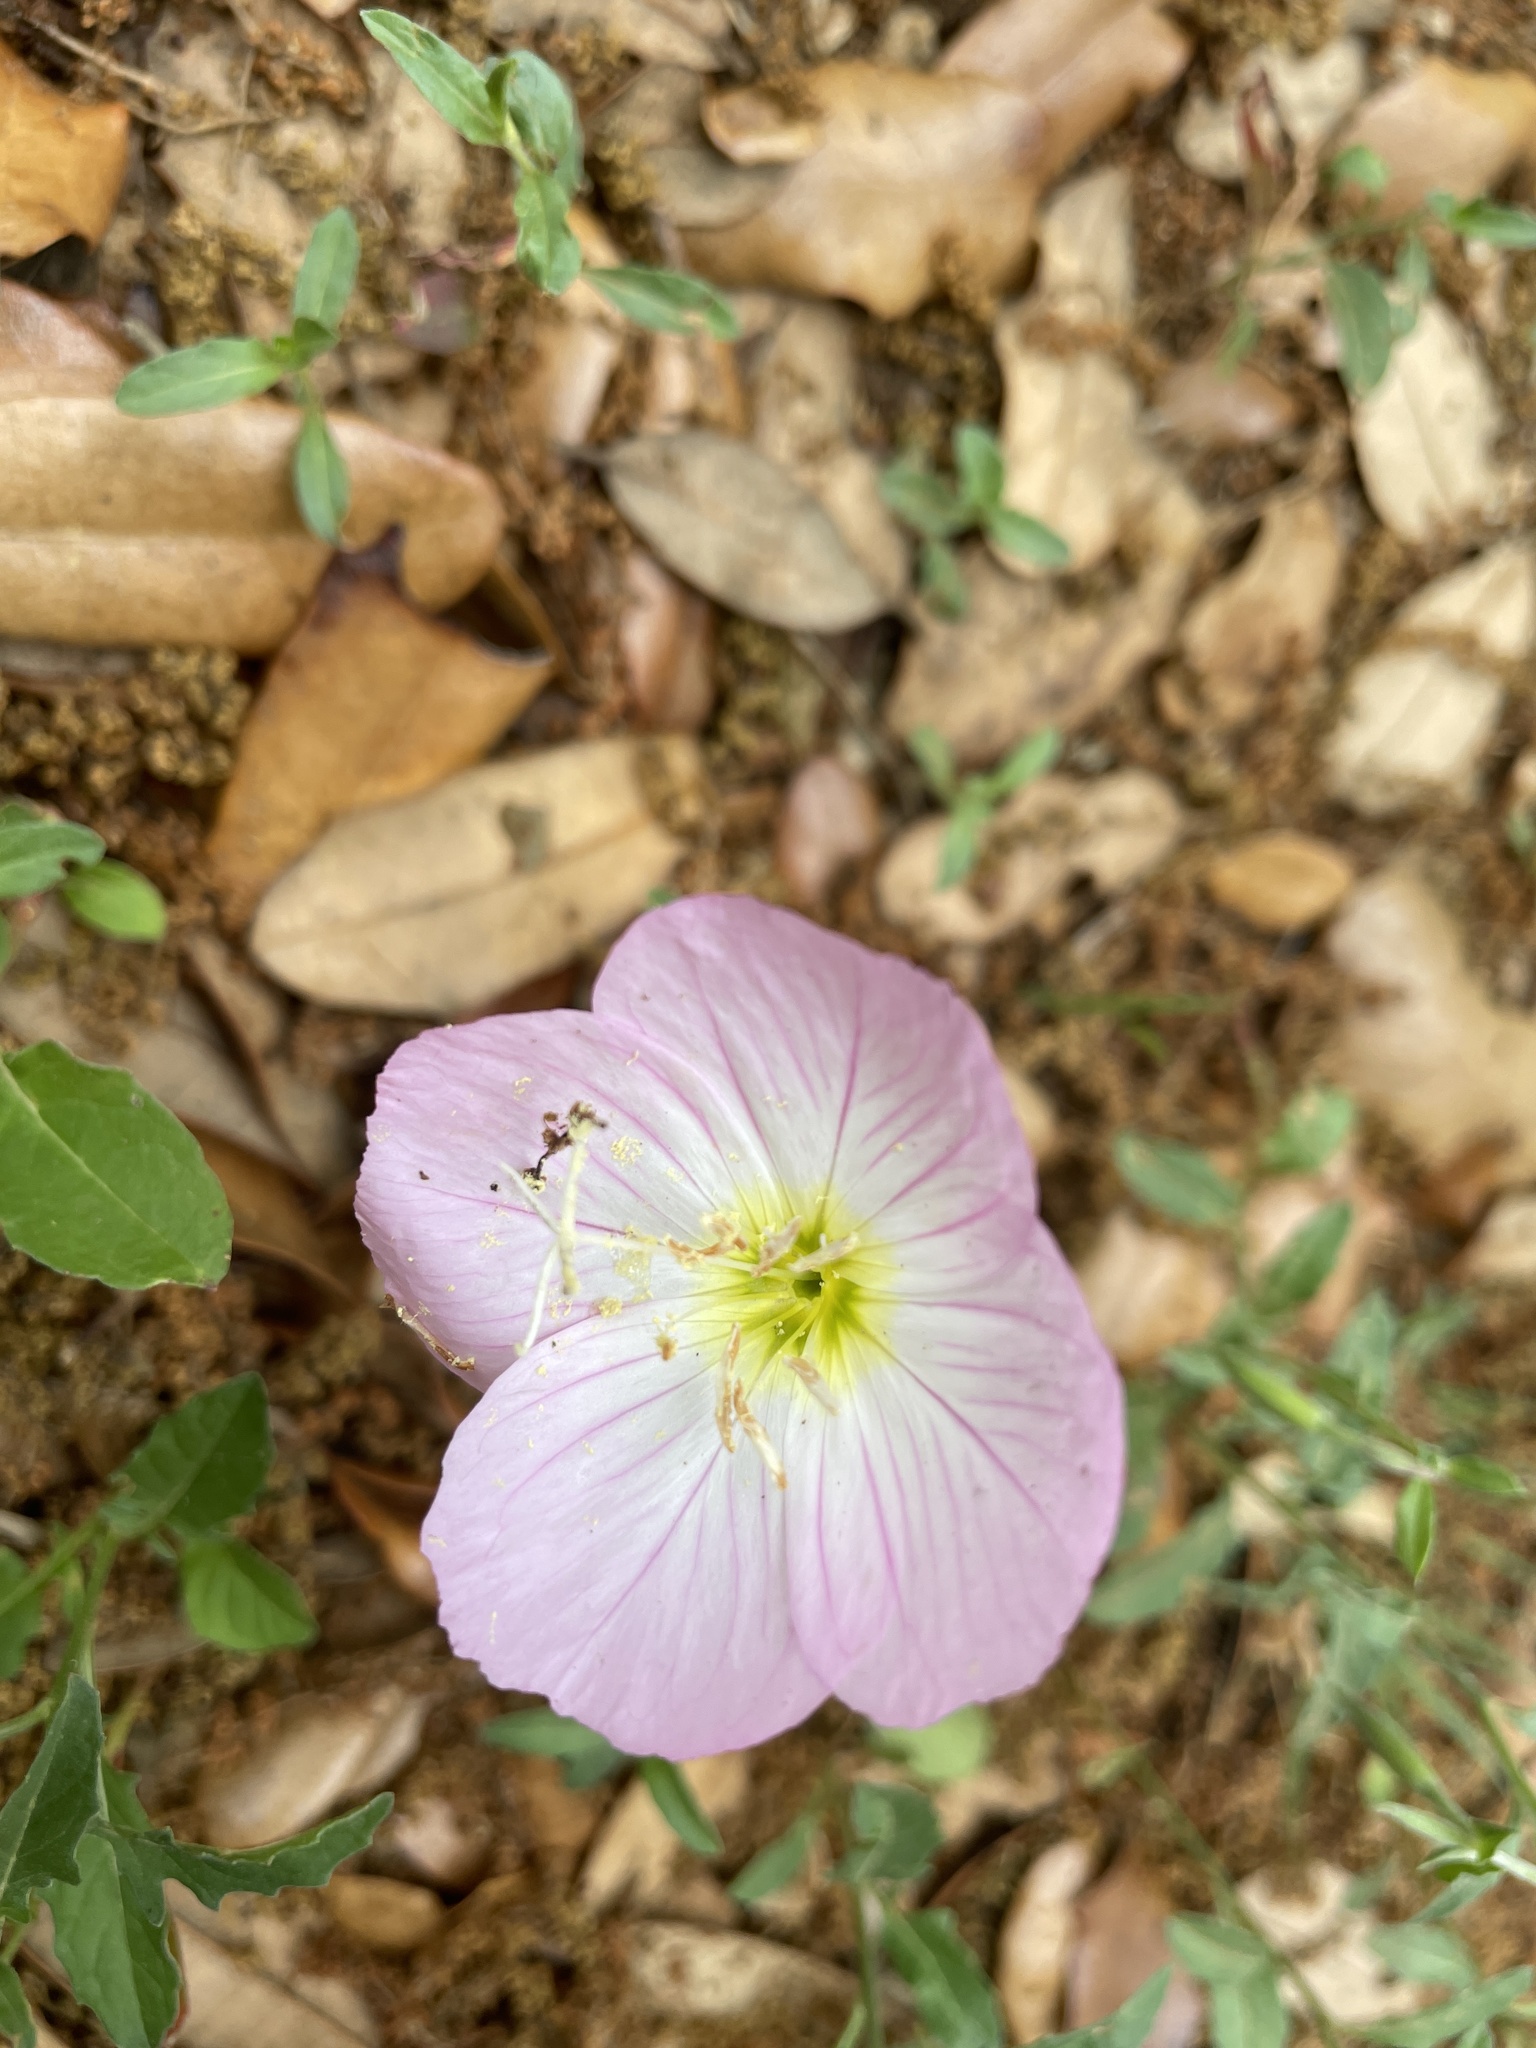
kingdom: Plantae
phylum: Tracheophyta
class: Magnoliopsida
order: Myrtales
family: Onagraceae
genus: Oenothera
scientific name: Oenothera speciosa
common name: White evening-primrose
